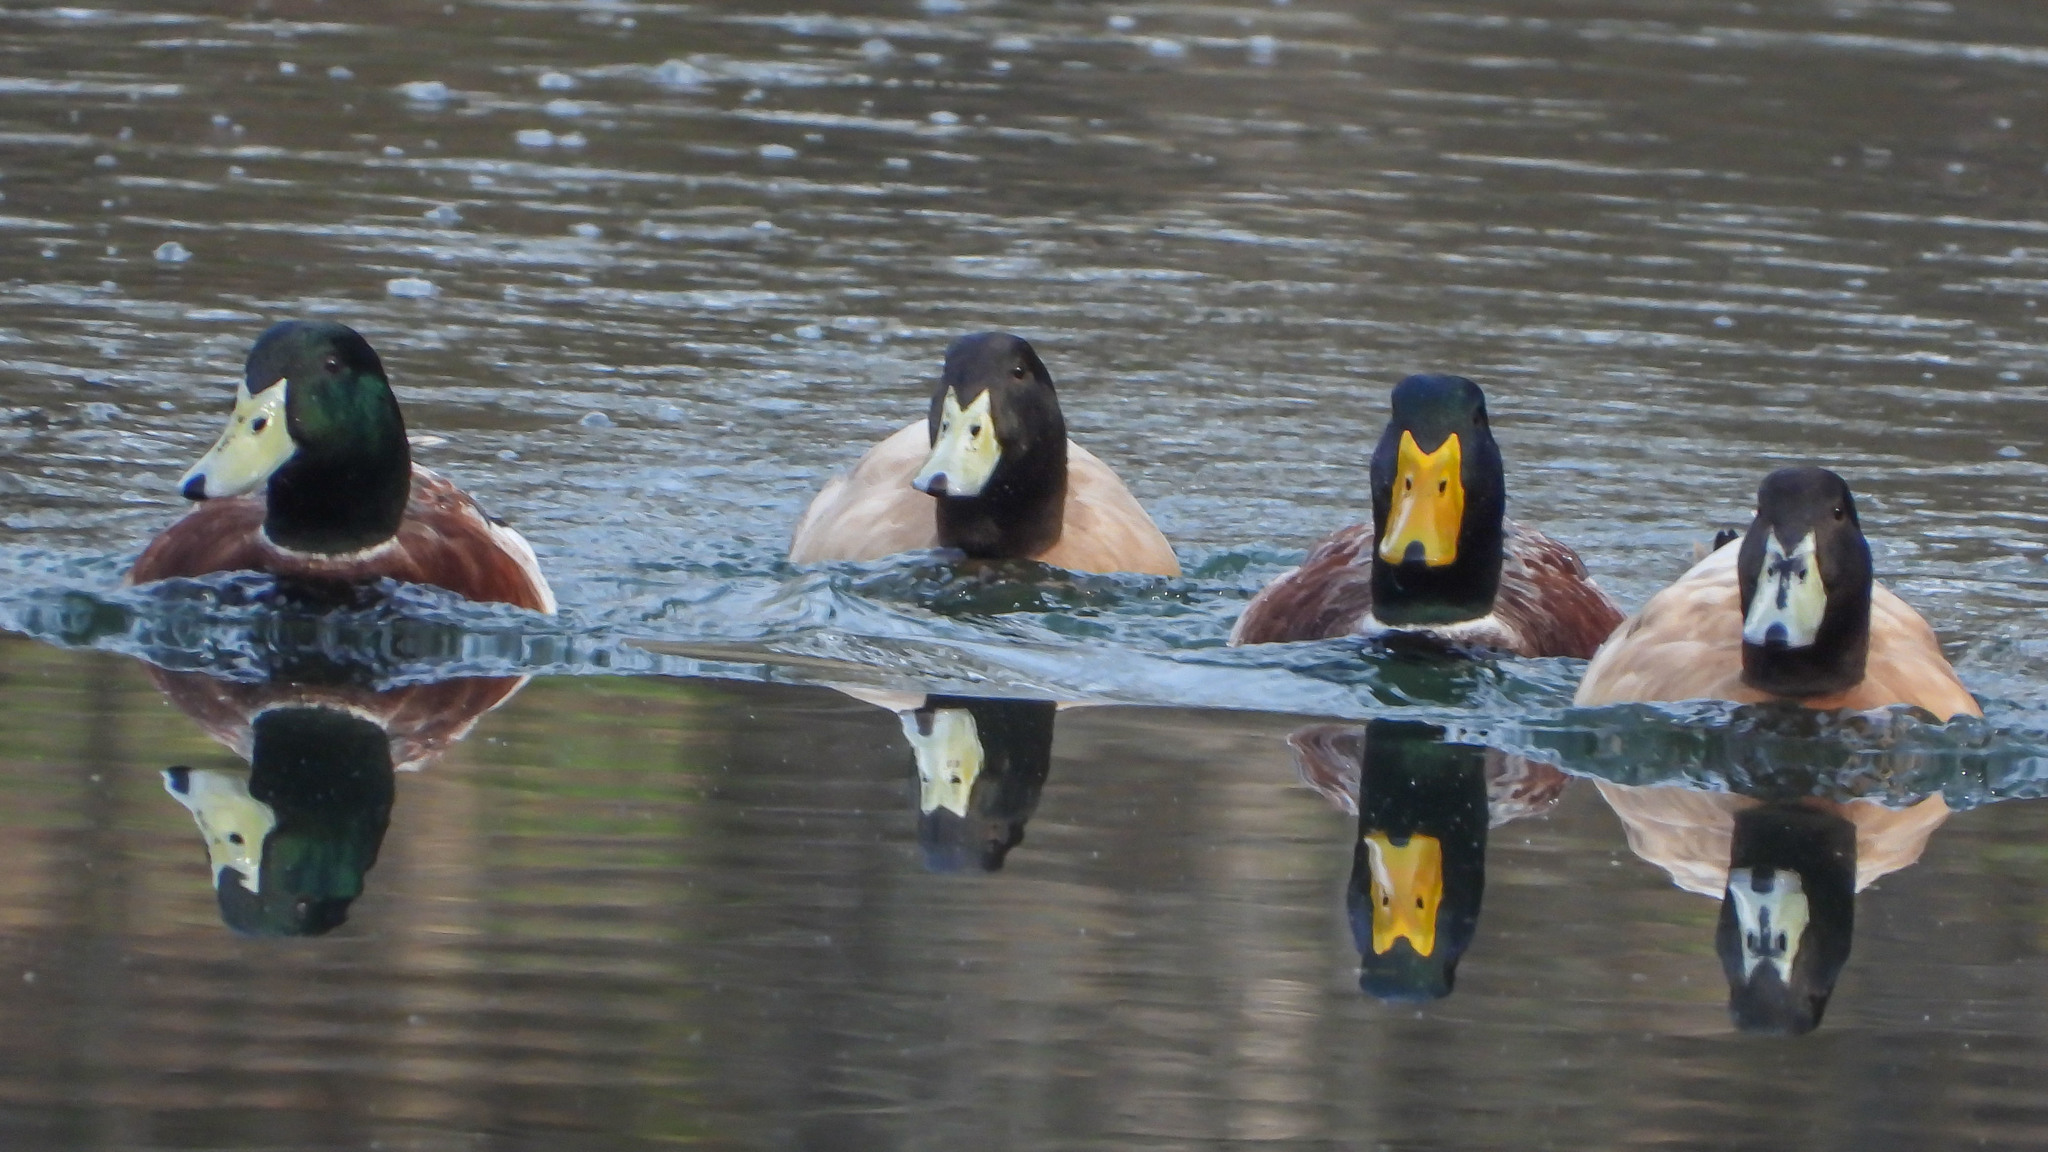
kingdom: Animalia
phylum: Chordata
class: Aves
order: Anseriformes
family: Anatidae
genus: Anas
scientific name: Anas platyrhynchos
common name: Mallard
